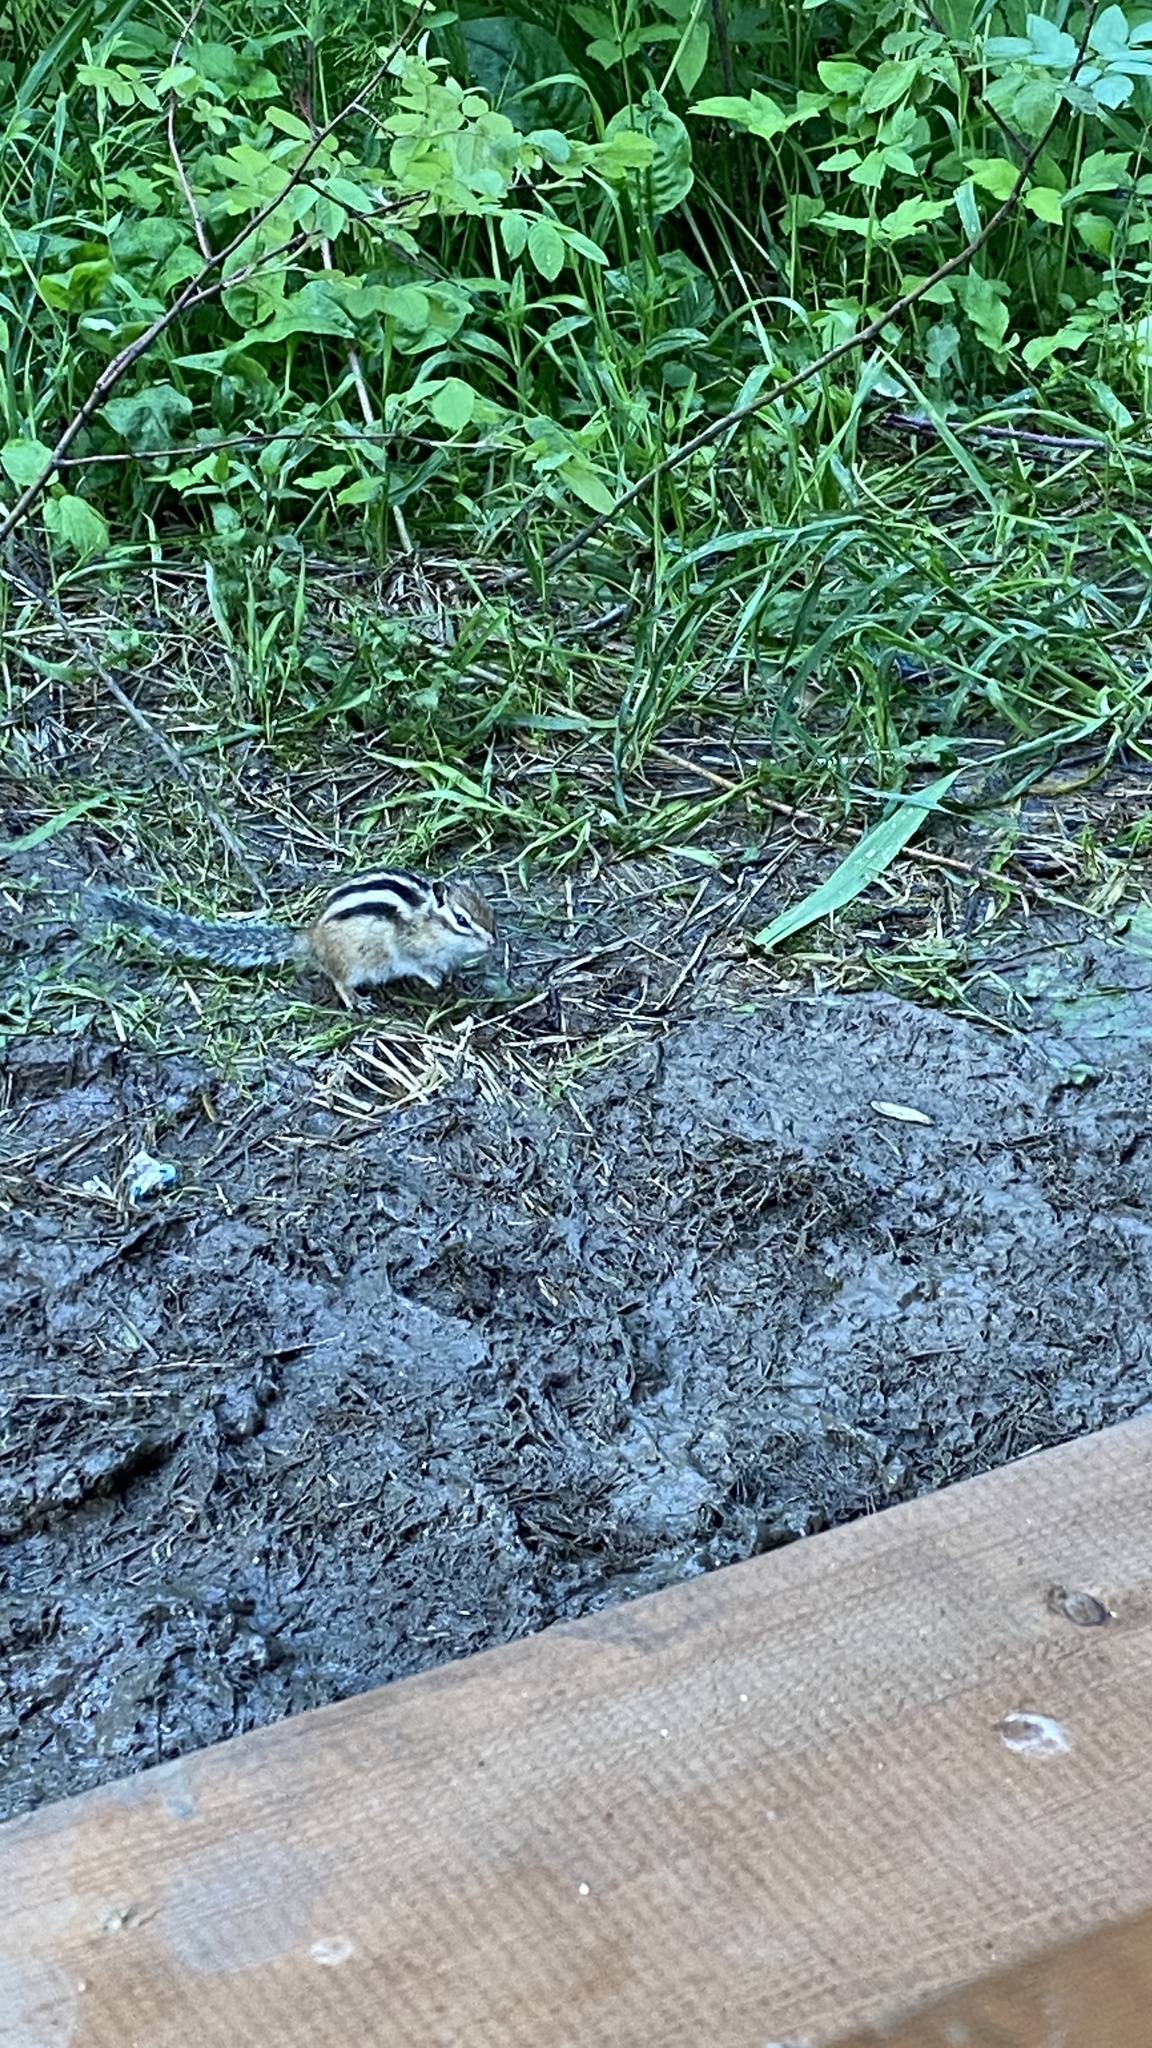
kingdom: Animalia
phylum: Chordata
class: Mammalia
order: Rodentia
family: Sciuridae
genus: Tamias
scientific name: Tamias sibiricus
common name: Siberian chipmunk
